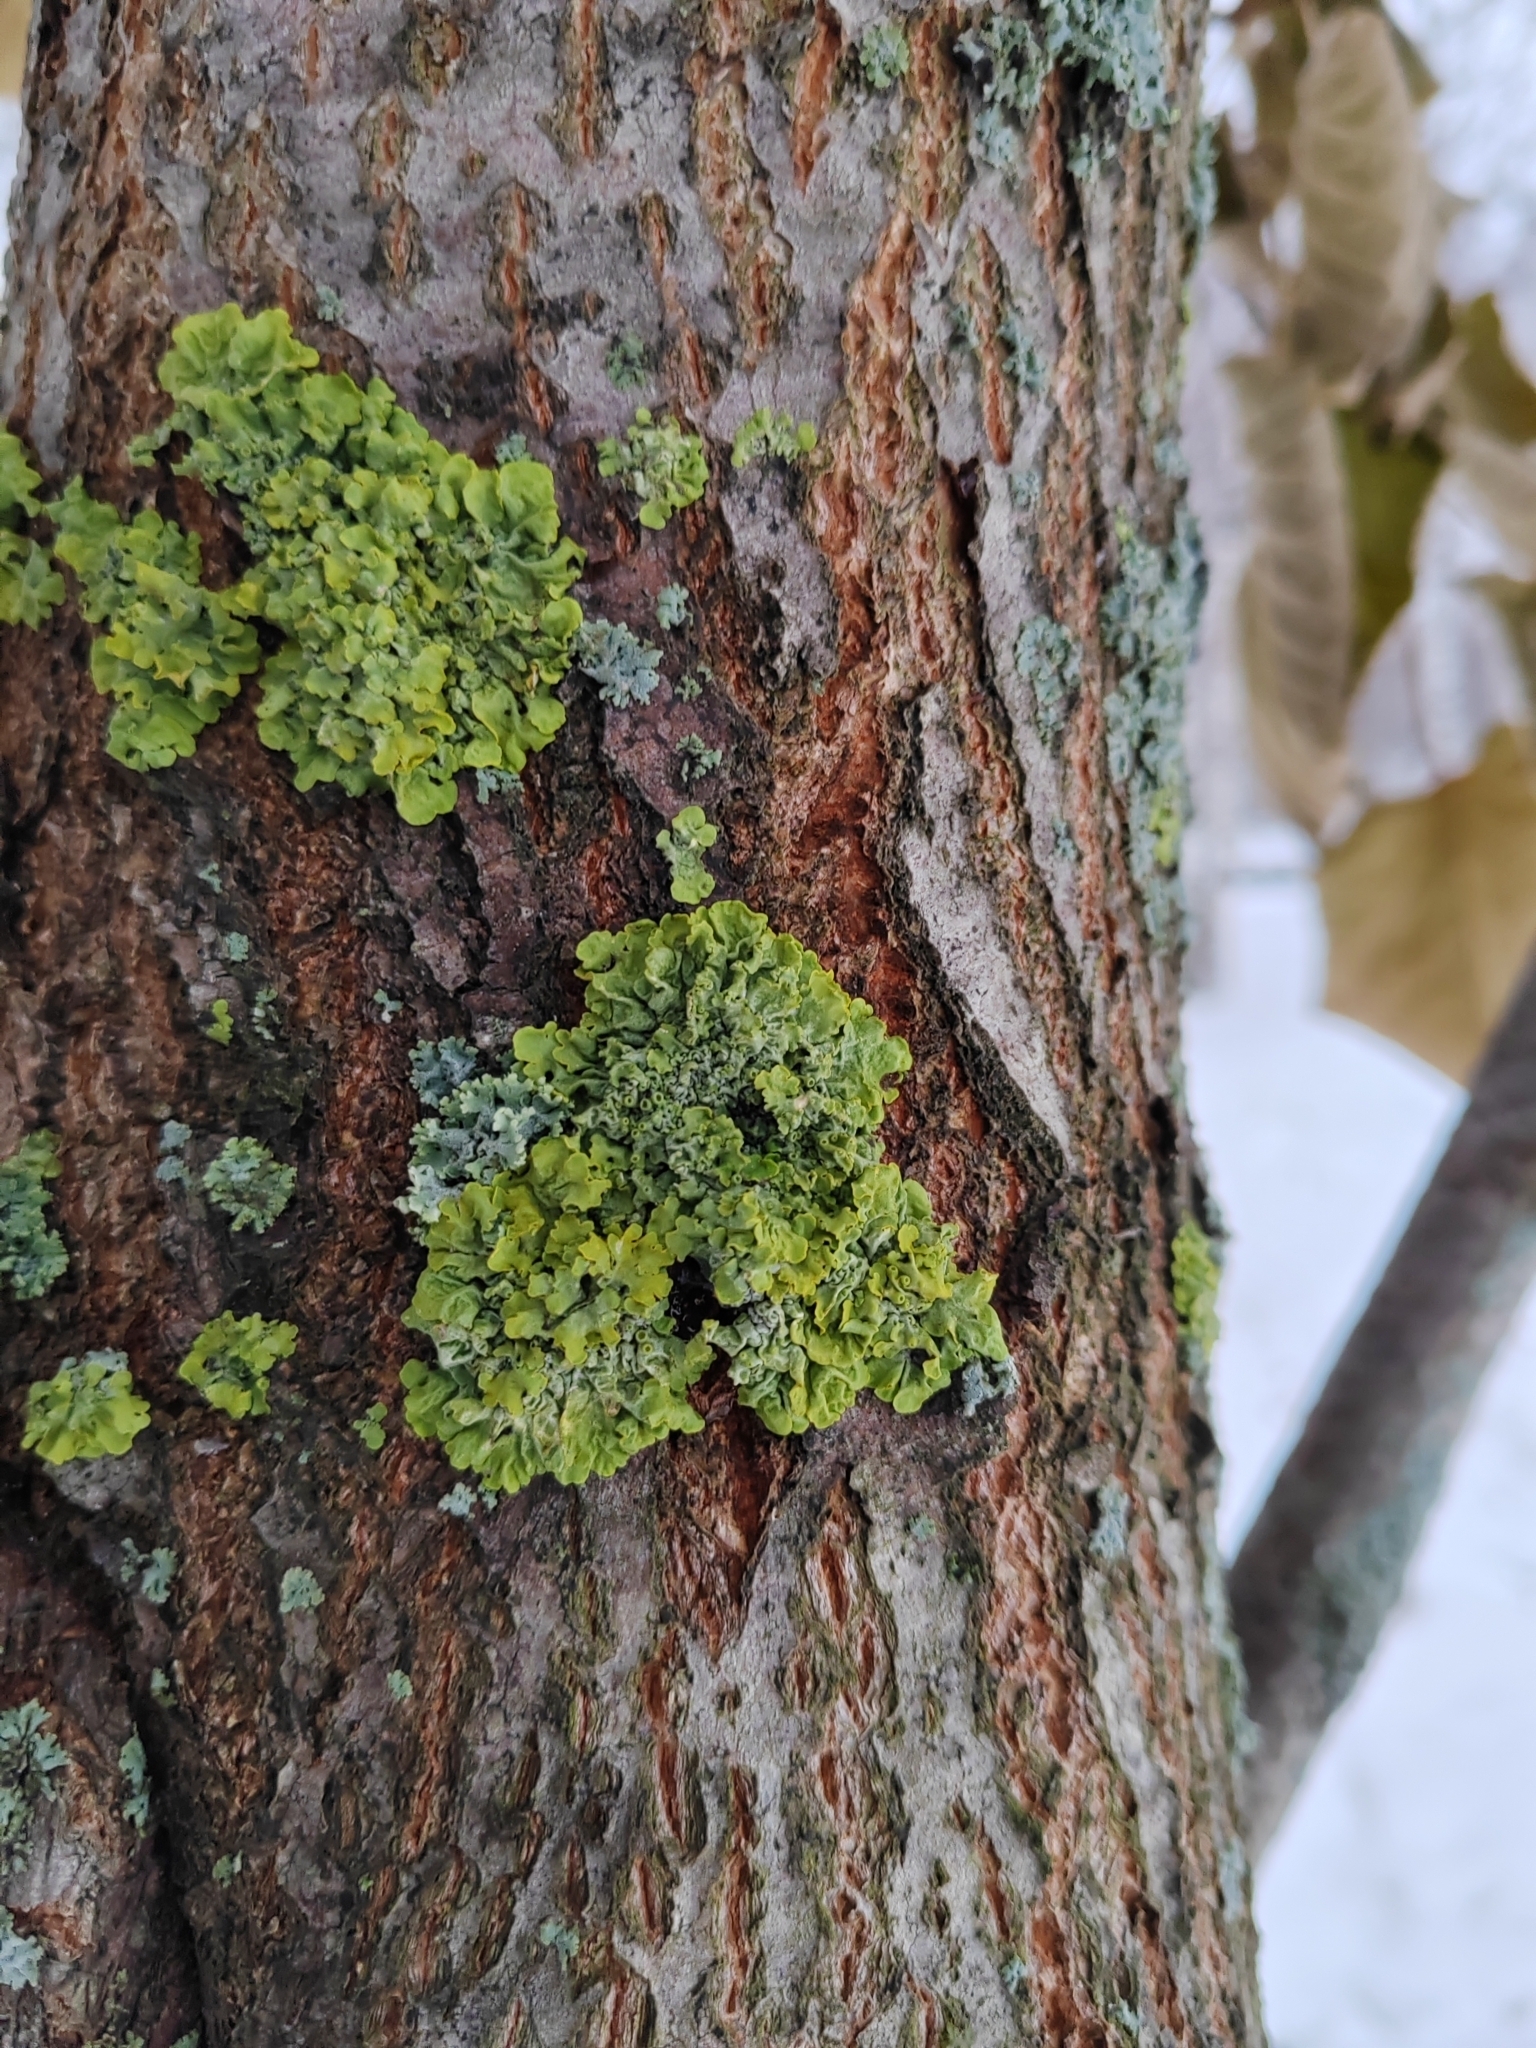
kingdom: Fungi
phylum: Ascomycota
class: Lecanoromycetes
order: Teloschistales
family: Teloschistaceae
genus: Xanthoria
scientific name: Xanthoria parietina
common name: Common orange lichen
